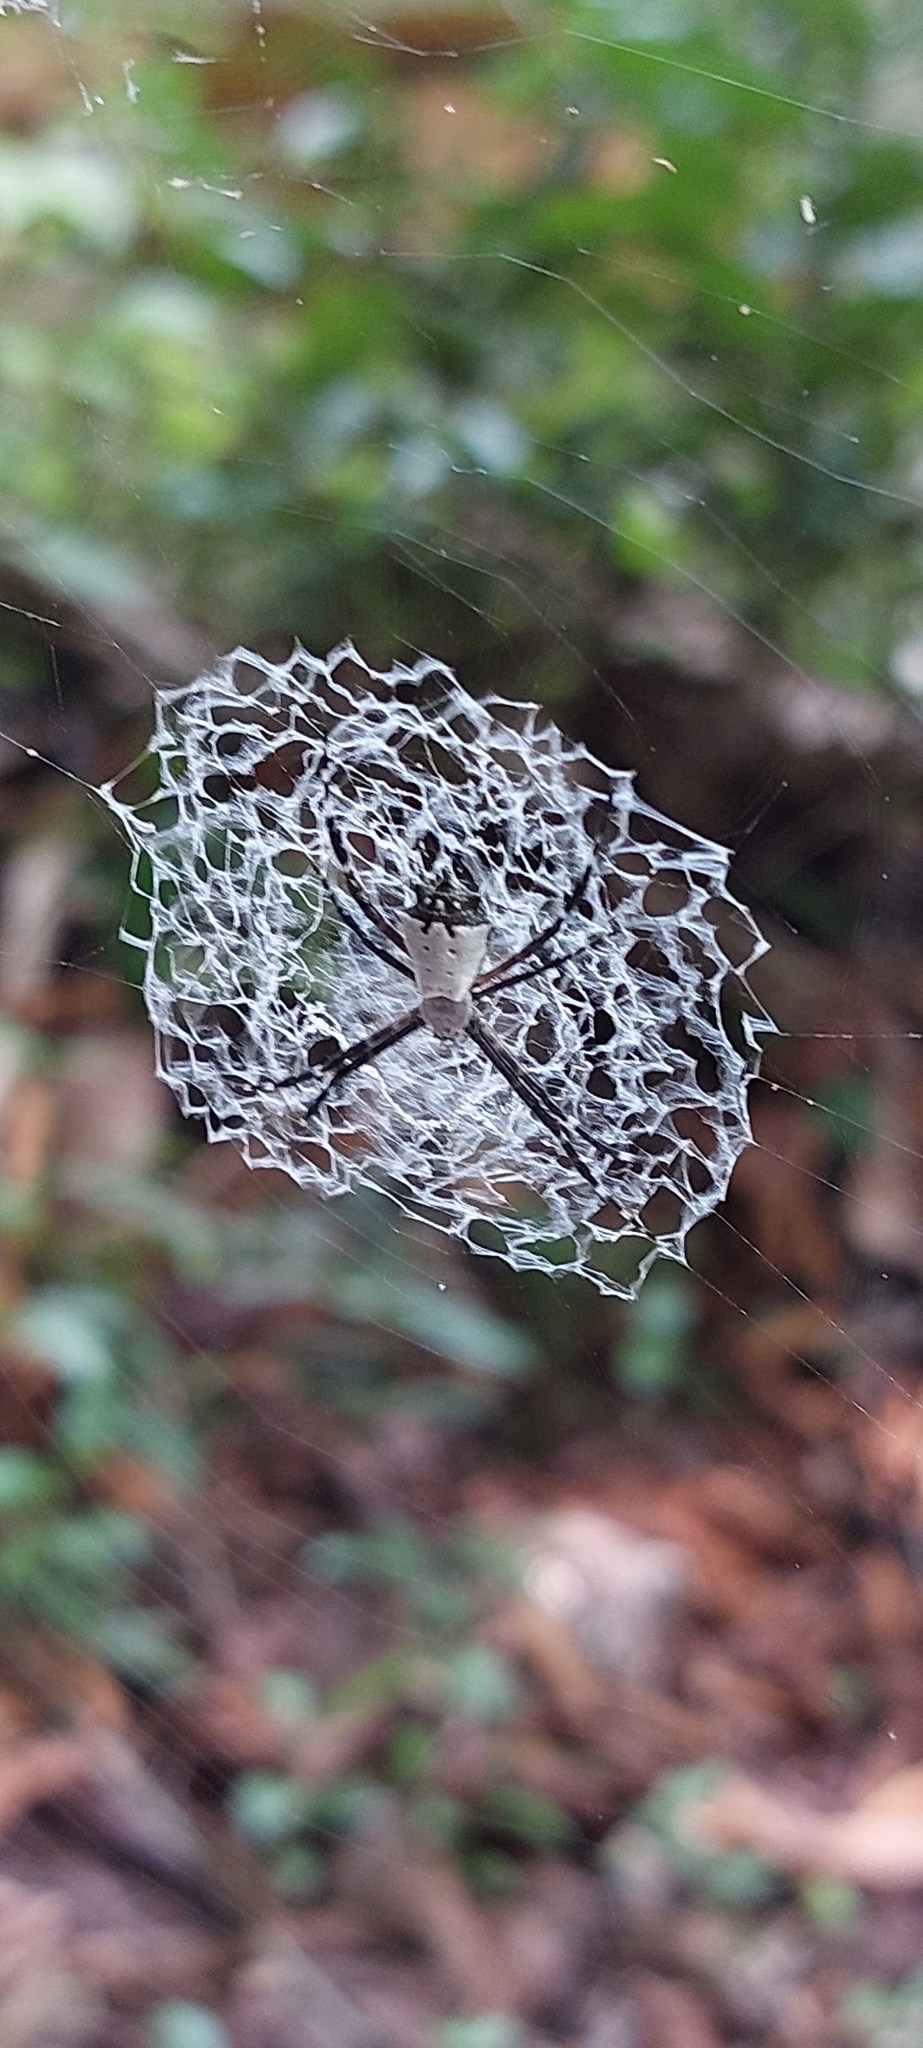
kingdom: Animalia
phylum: Arthropoda
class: Arachnida
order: Araneae
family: Araneidae
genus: Argiope
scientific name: Argiope submaronica
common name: Orb weavers
